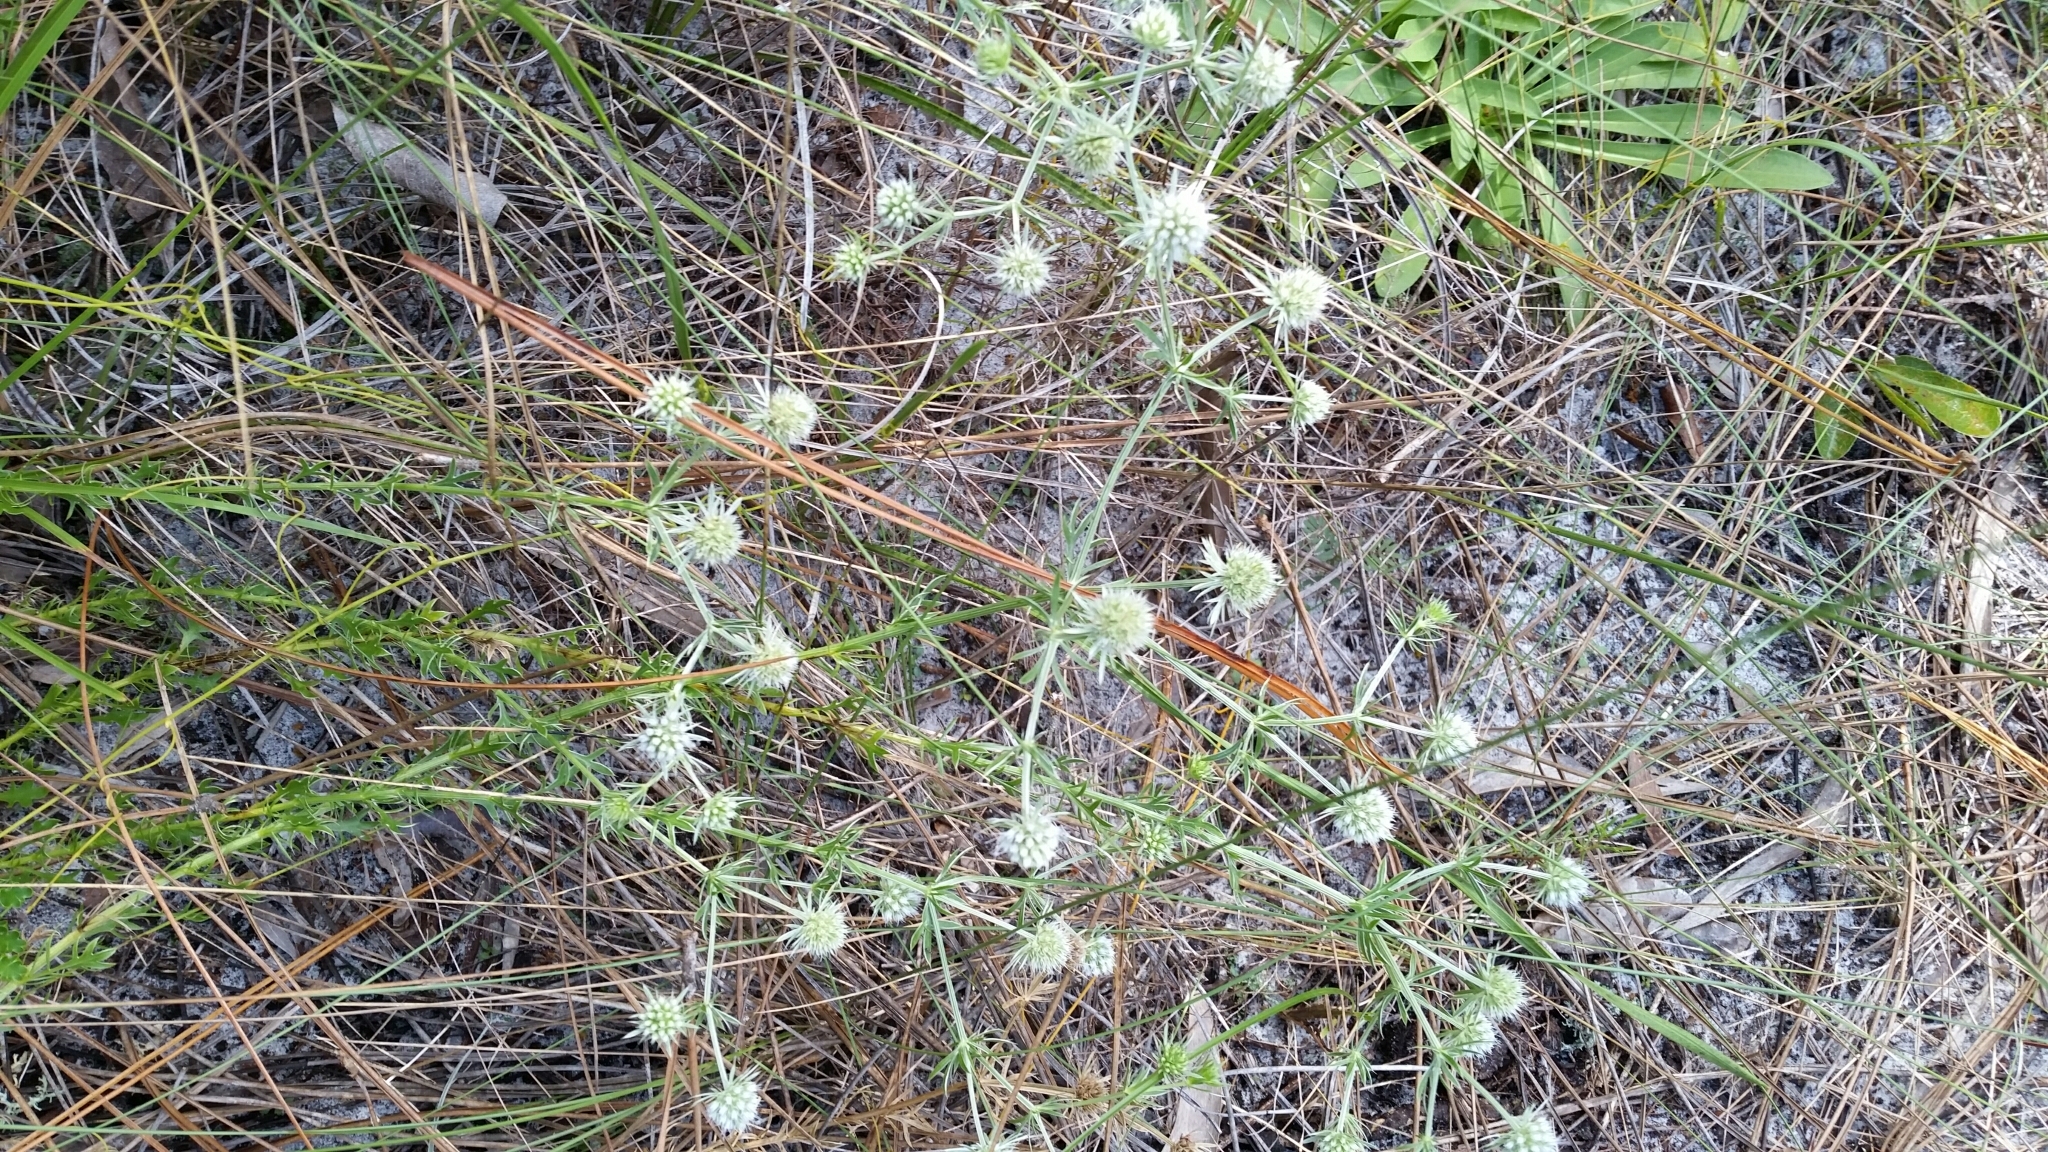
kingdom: Plantae
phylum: Tracheophyta
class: Magnoliopsida
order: Apiales
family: Apiaceae
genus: Eryngium
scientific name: Eryngium aromaticum
